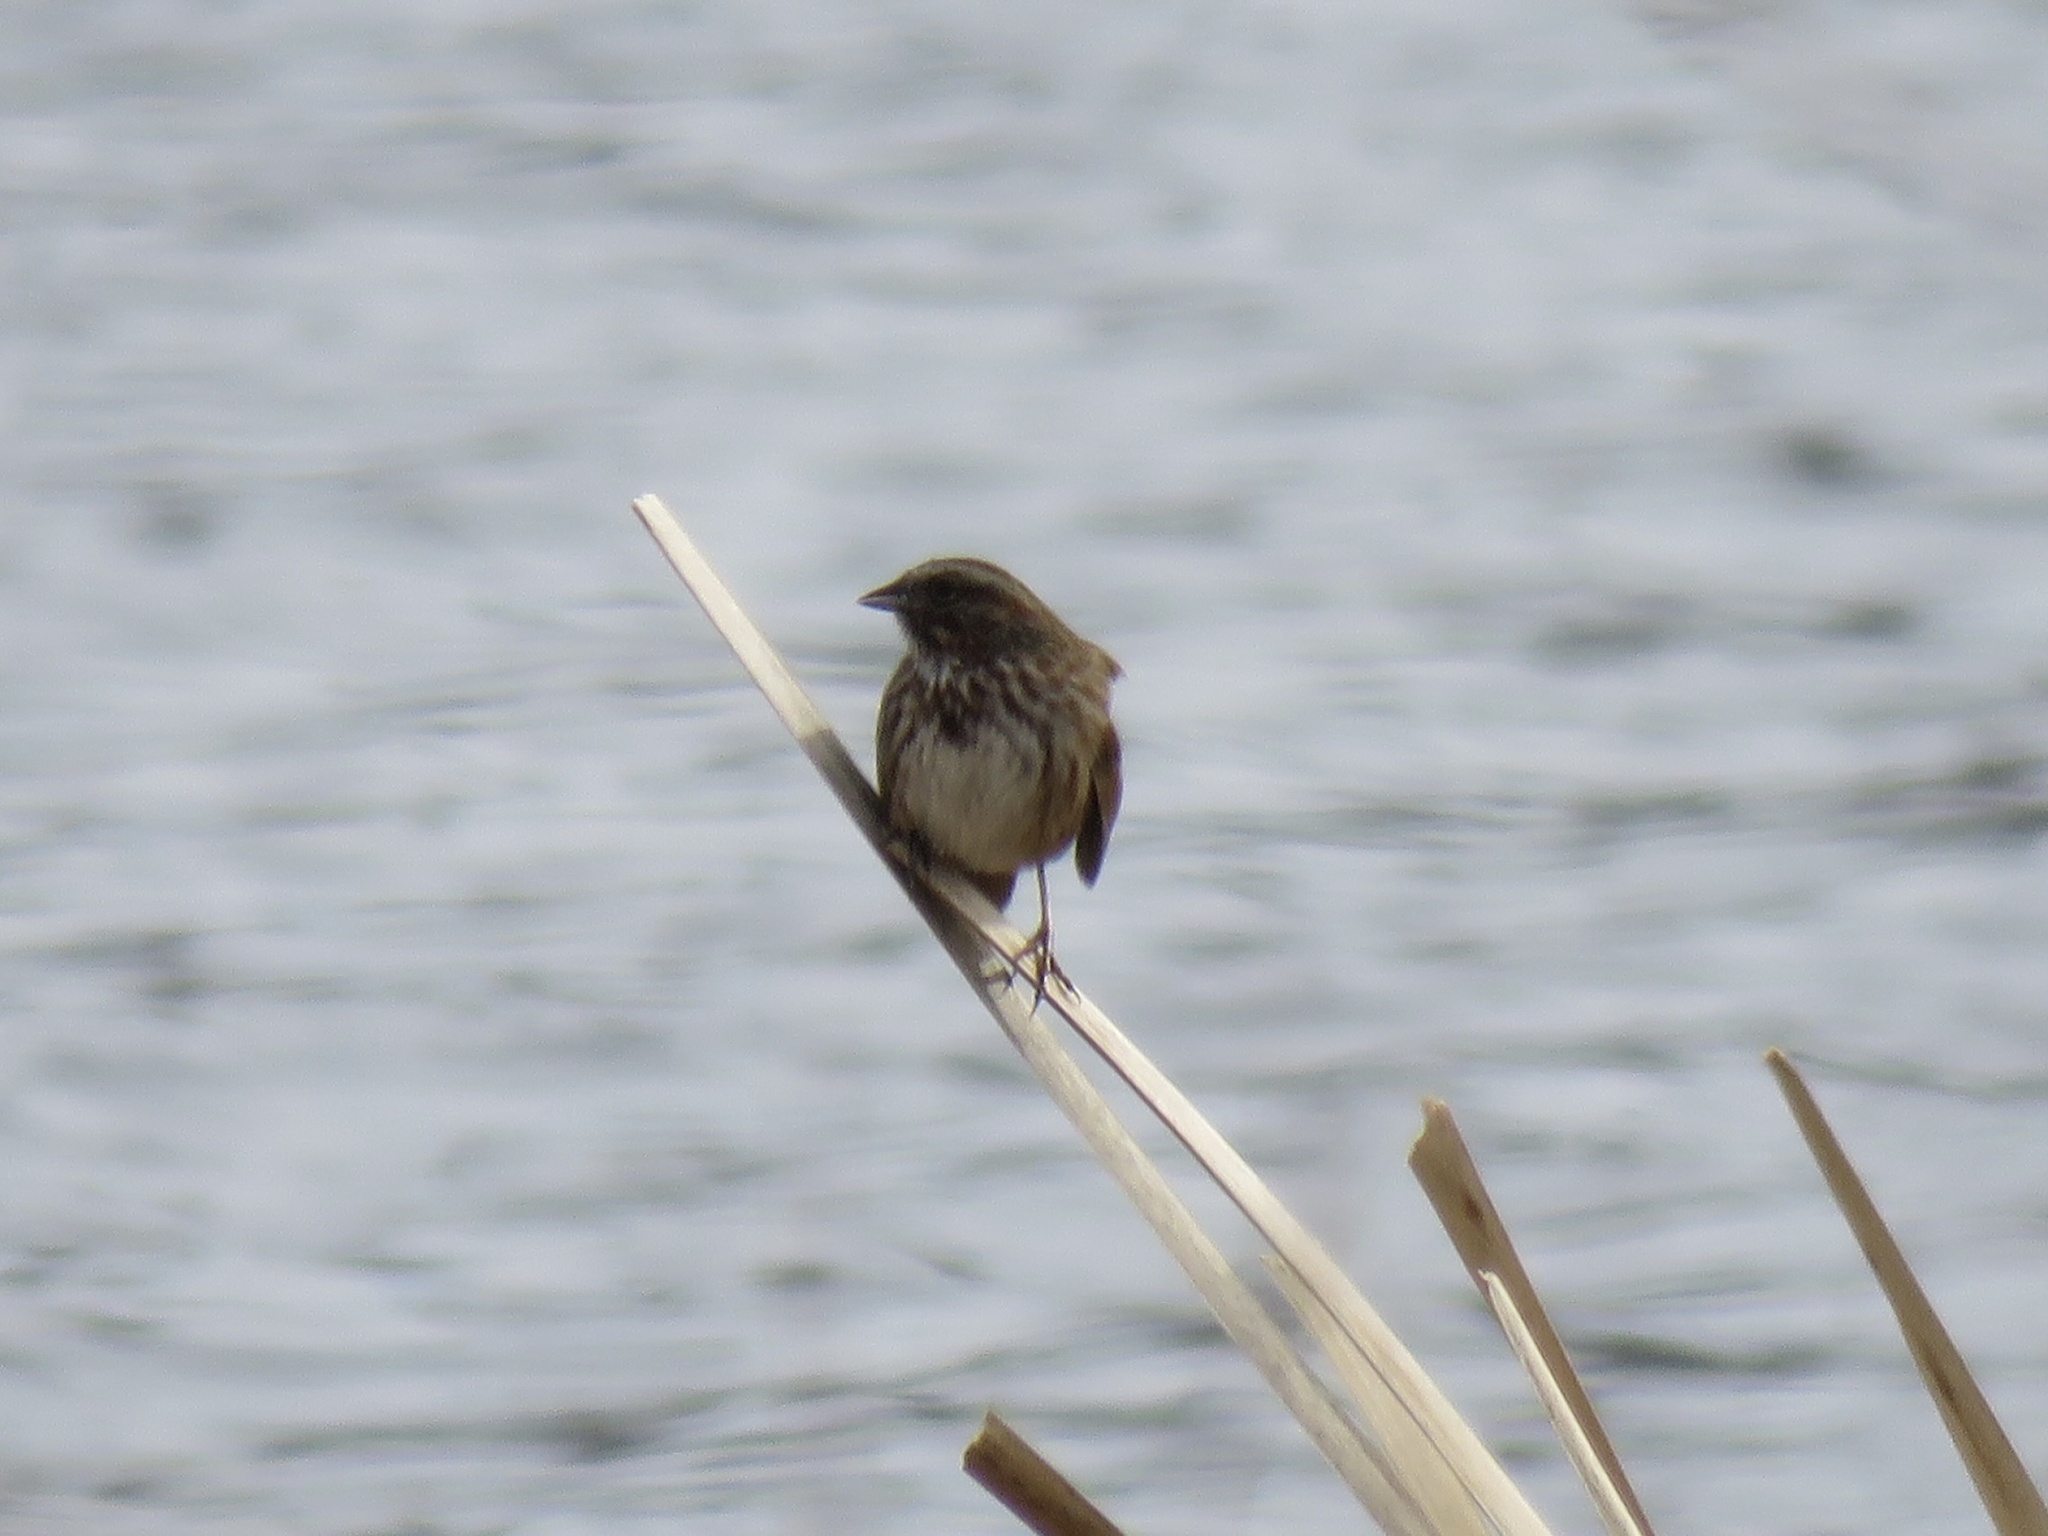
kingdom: Animalia
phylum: Chordata
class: Aves
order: Passeriformes
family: Passerellidae
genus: Melospiza
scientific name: Melospiza melodia
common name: Song sparrow
